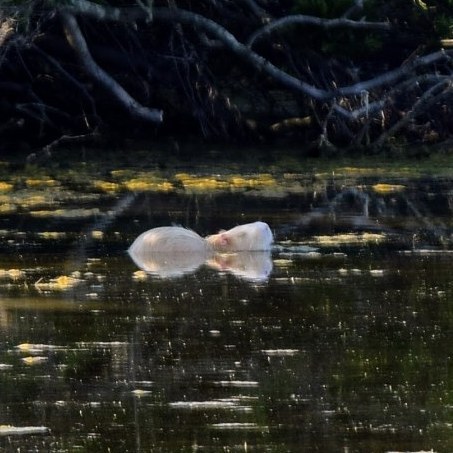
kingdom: Animalia
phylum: Chordata
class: Mammalia
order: Rodentia
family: Myocastoridae
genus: Myocastor
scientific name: Myocastor coypus
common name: Coypu
